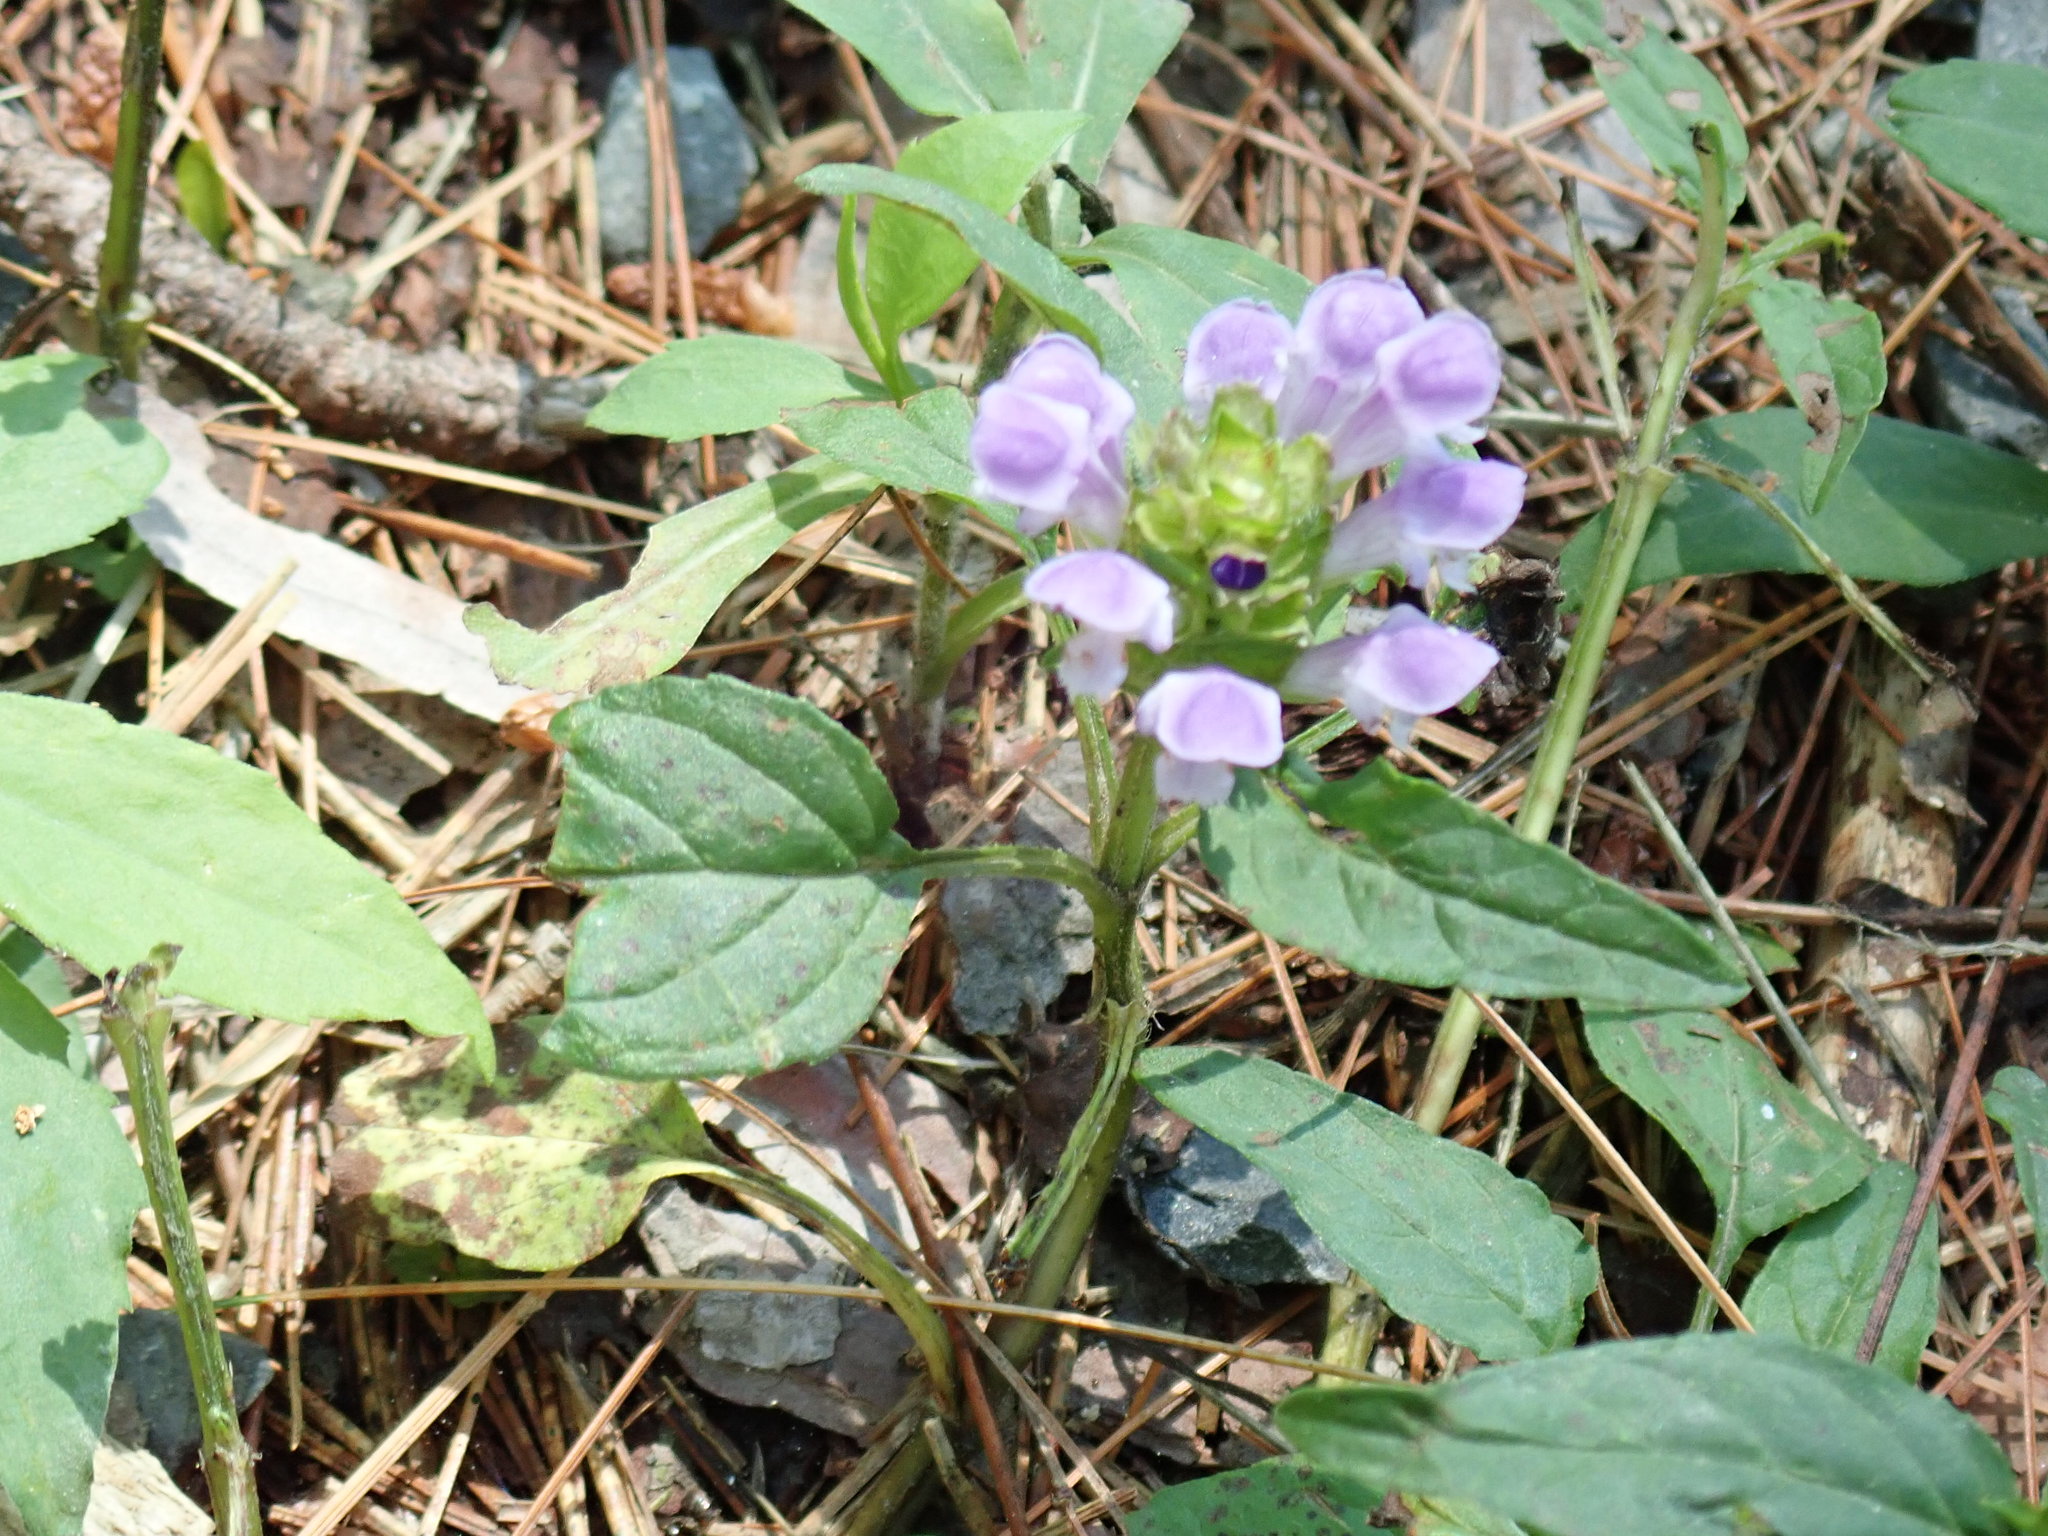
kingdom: Plantae
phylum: Tracheophyta
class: Magnoliopsida
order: Lamiales
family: Lamiaceae
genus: Prunella
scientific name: Prunella vulgaris
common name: Heal-all
